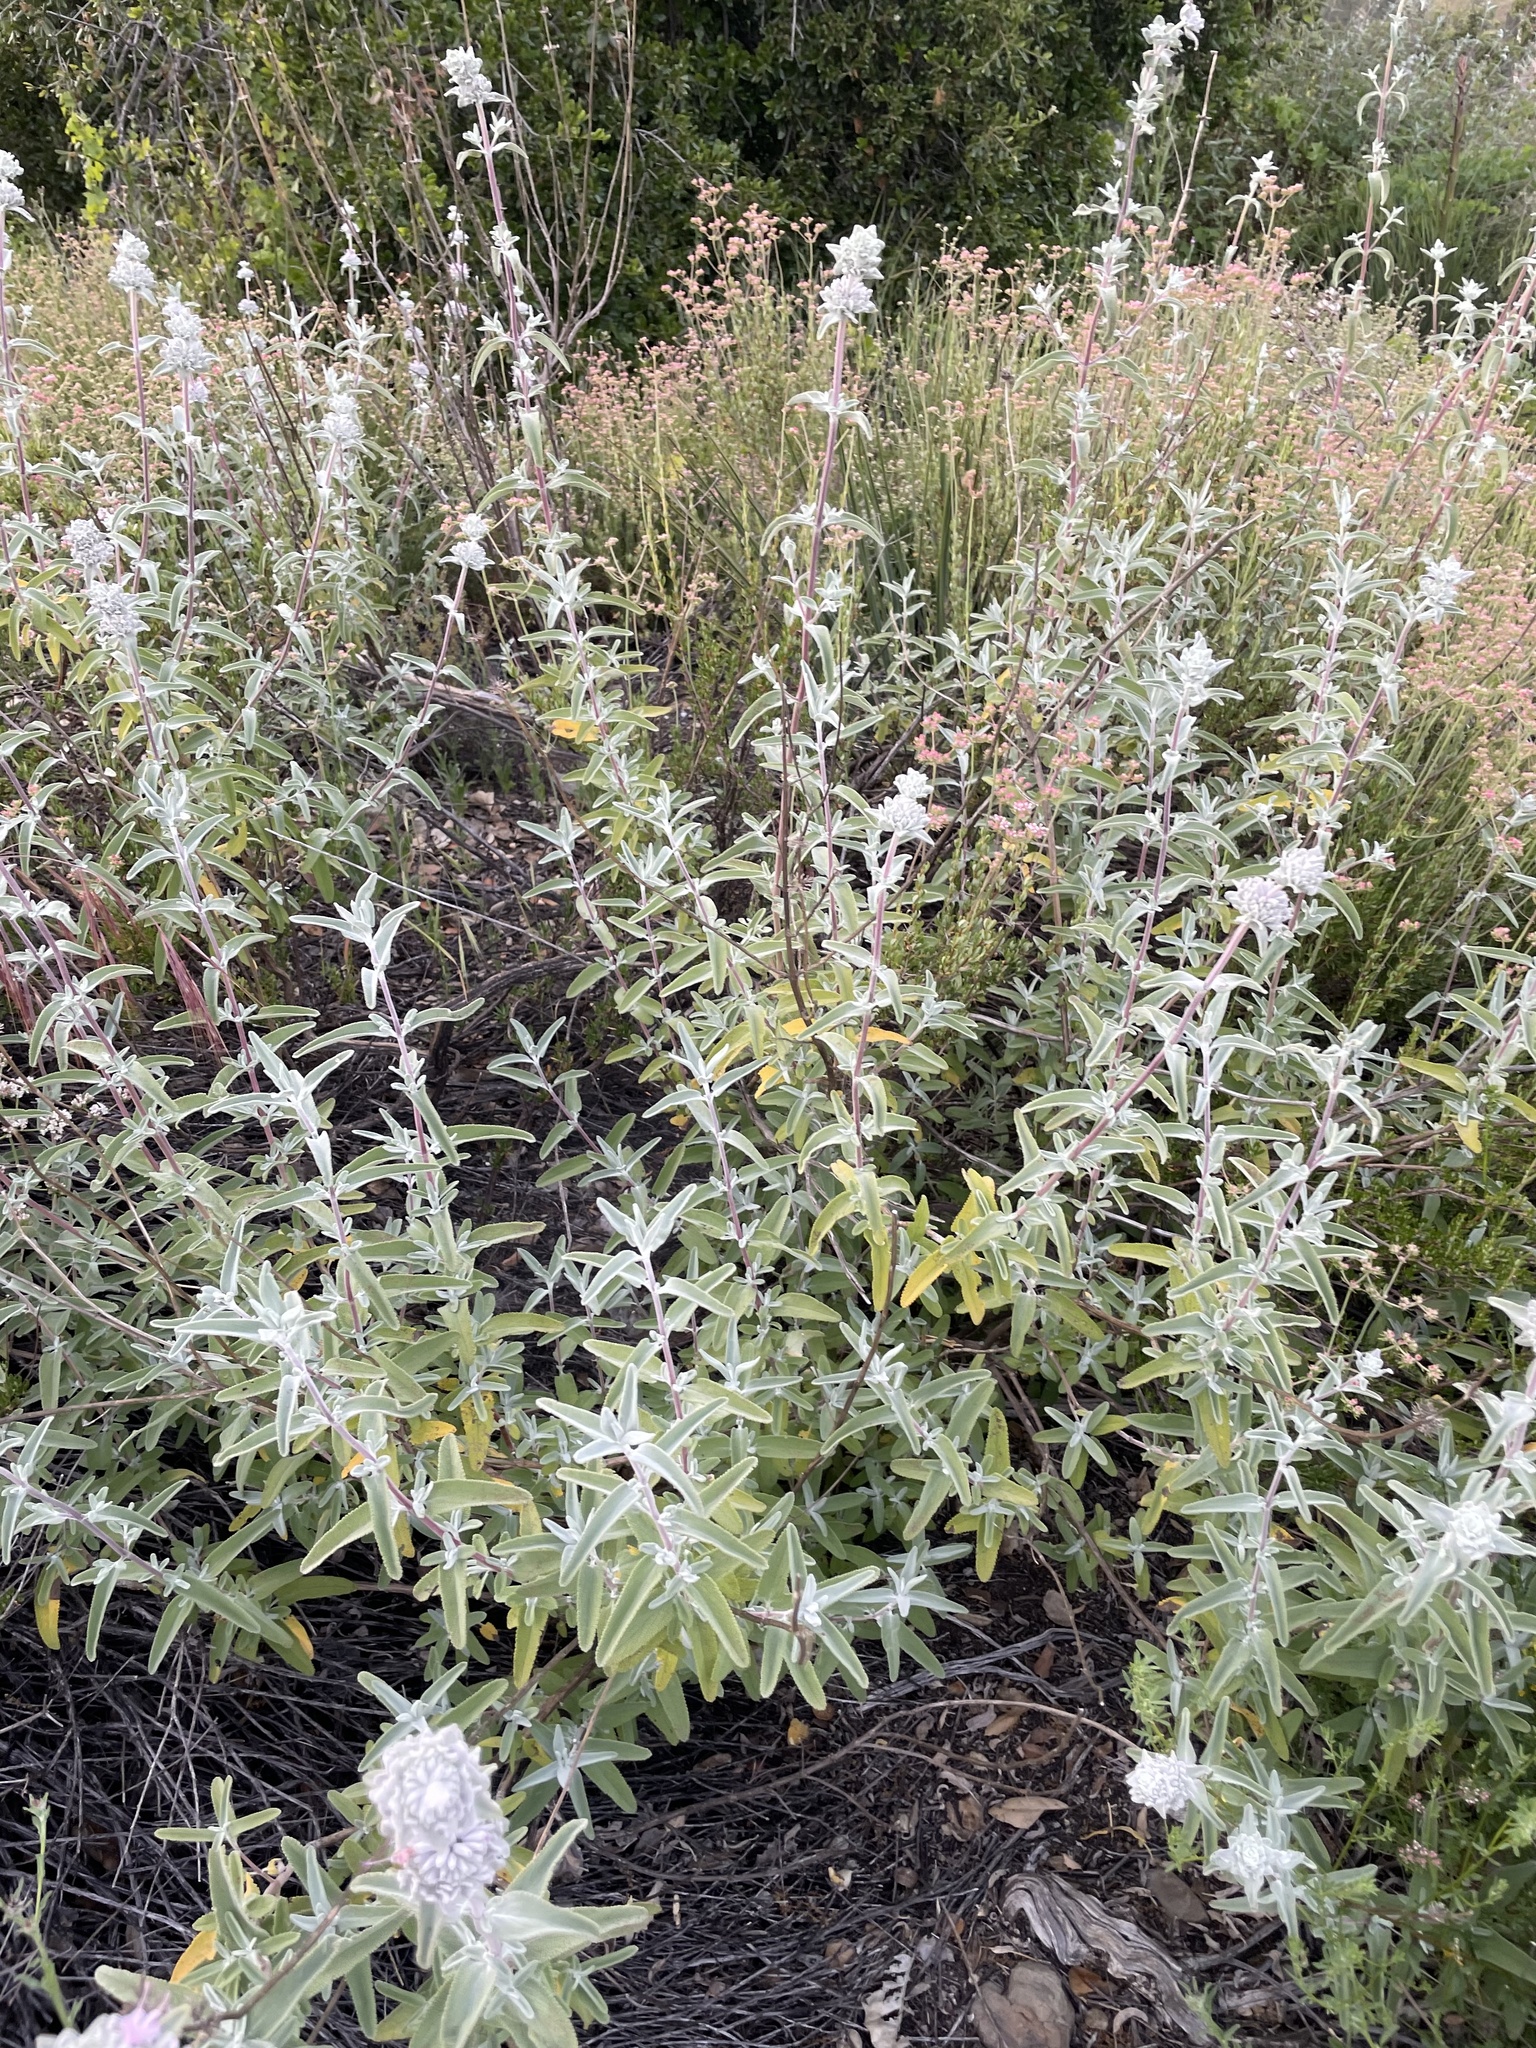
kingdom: Plantae
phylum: Tracheophyta
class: Magnoliopsida
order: Lamiales
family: Lamiaceae
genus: Salvia
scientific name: Salvia leucophylla
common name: Purple sage
